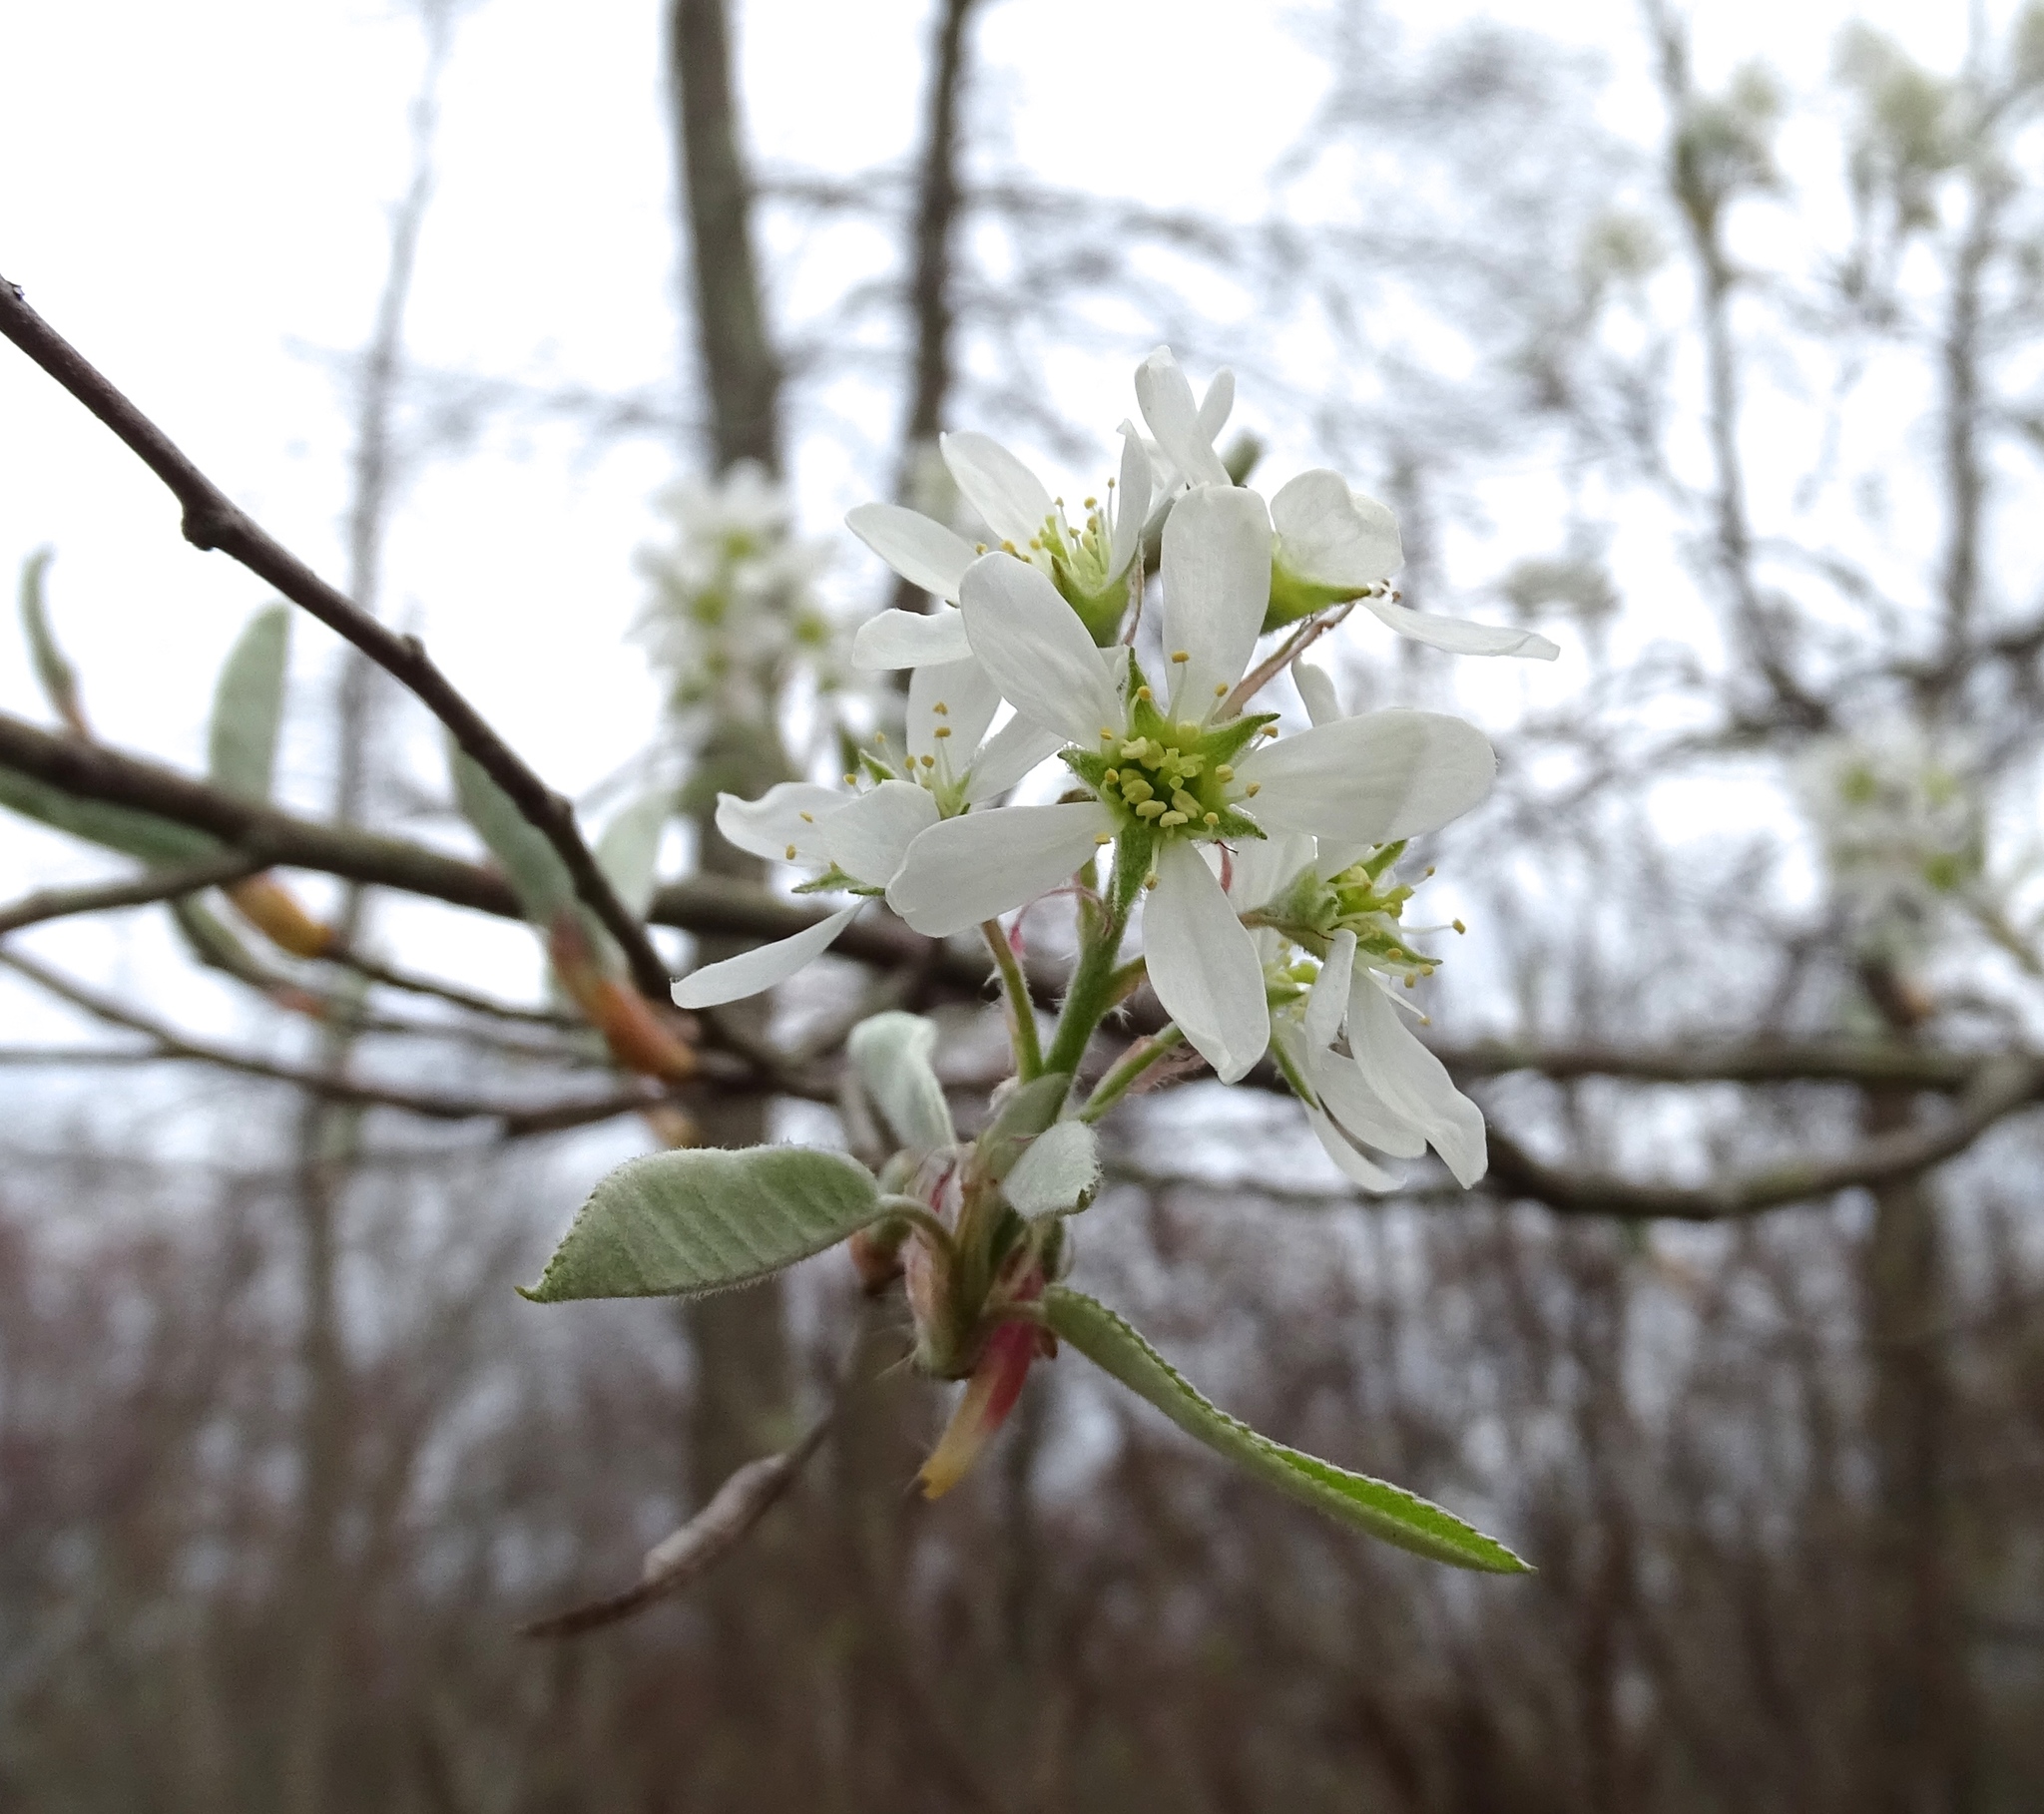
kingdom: Plantae
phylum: Tracheophyta
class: Magnoliopsida
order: Rosales
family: Rosaceae
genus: Amelanchier
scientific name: Amelanchier canadensis
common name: Thicket serviceberry
